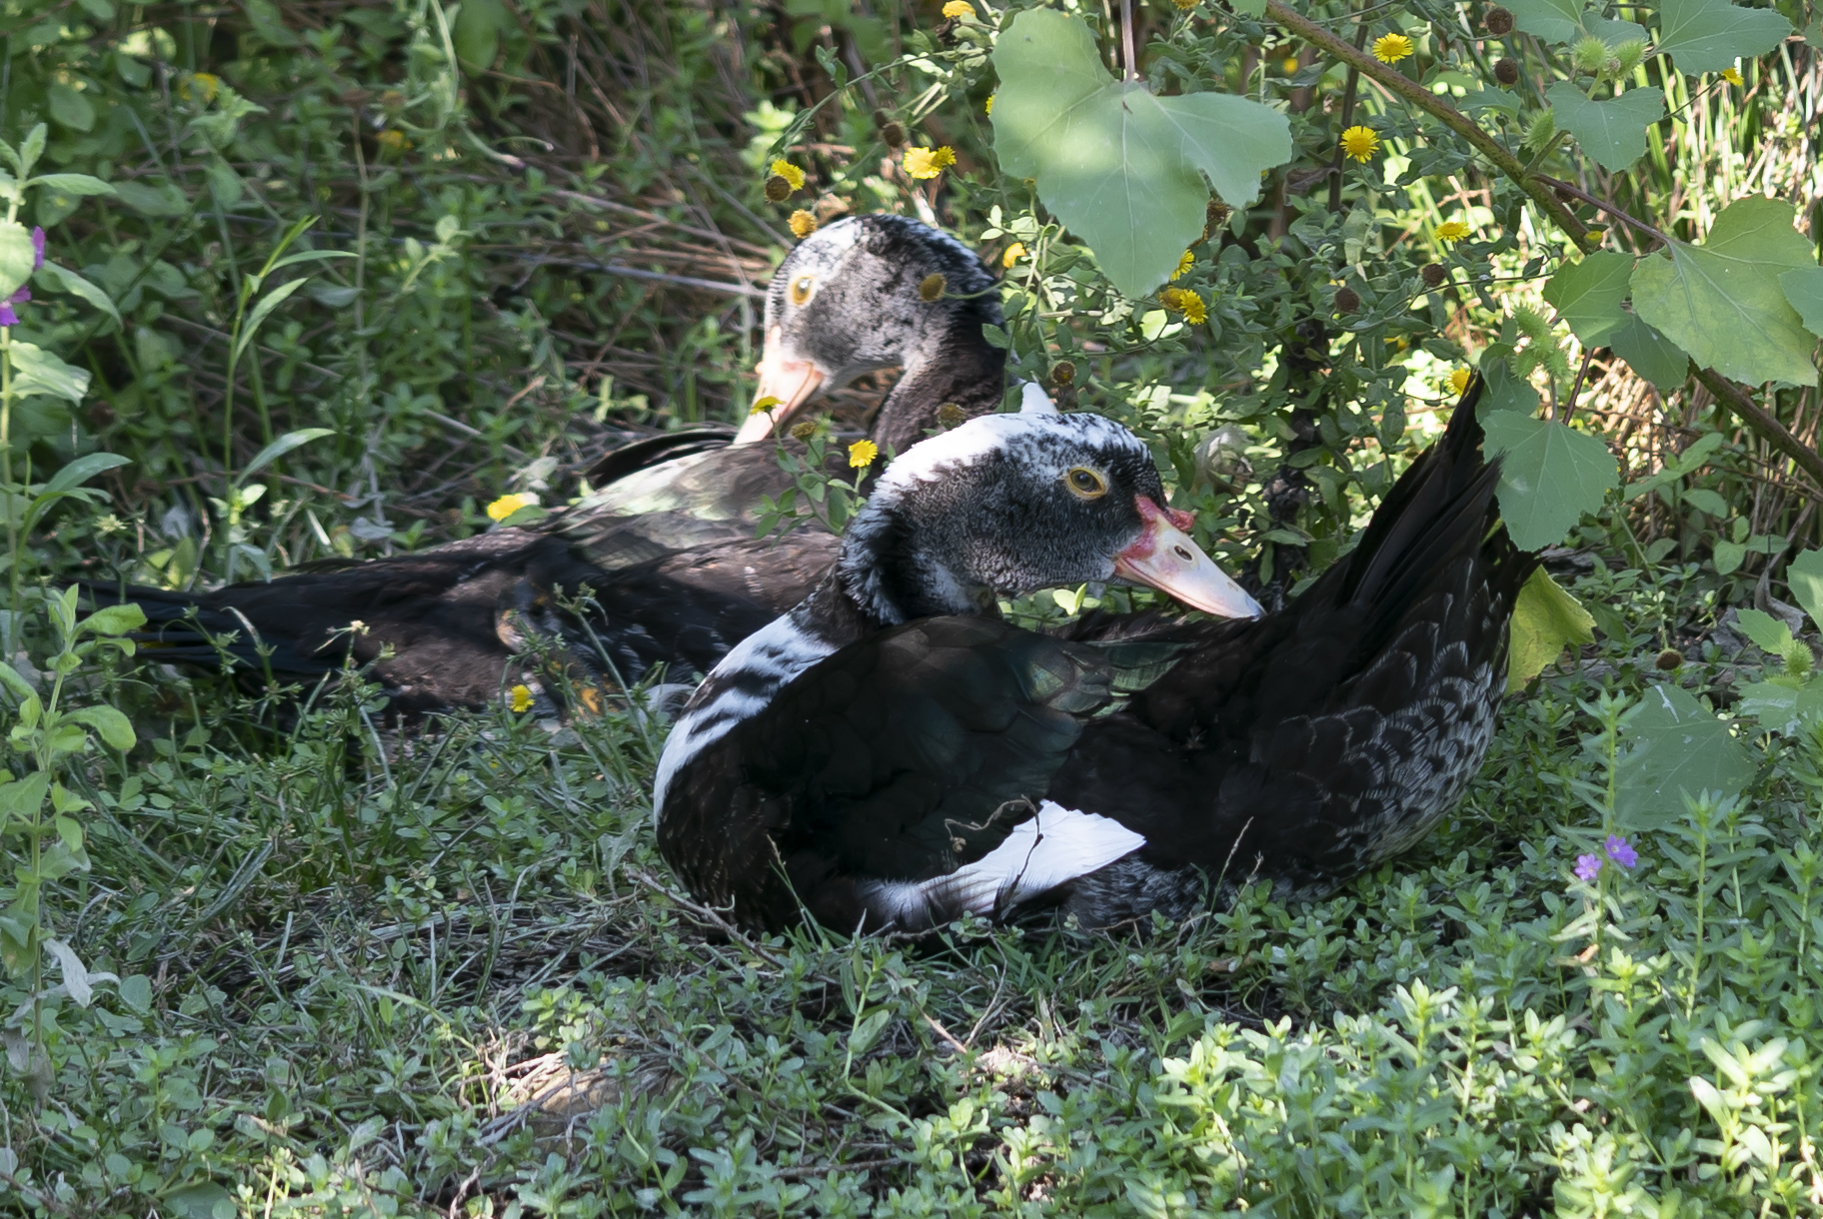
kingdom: Animalia
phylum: Chordata
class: Aves
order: Anseriformes
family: Anatidae
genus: Cairina
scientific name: Cairina moschata
